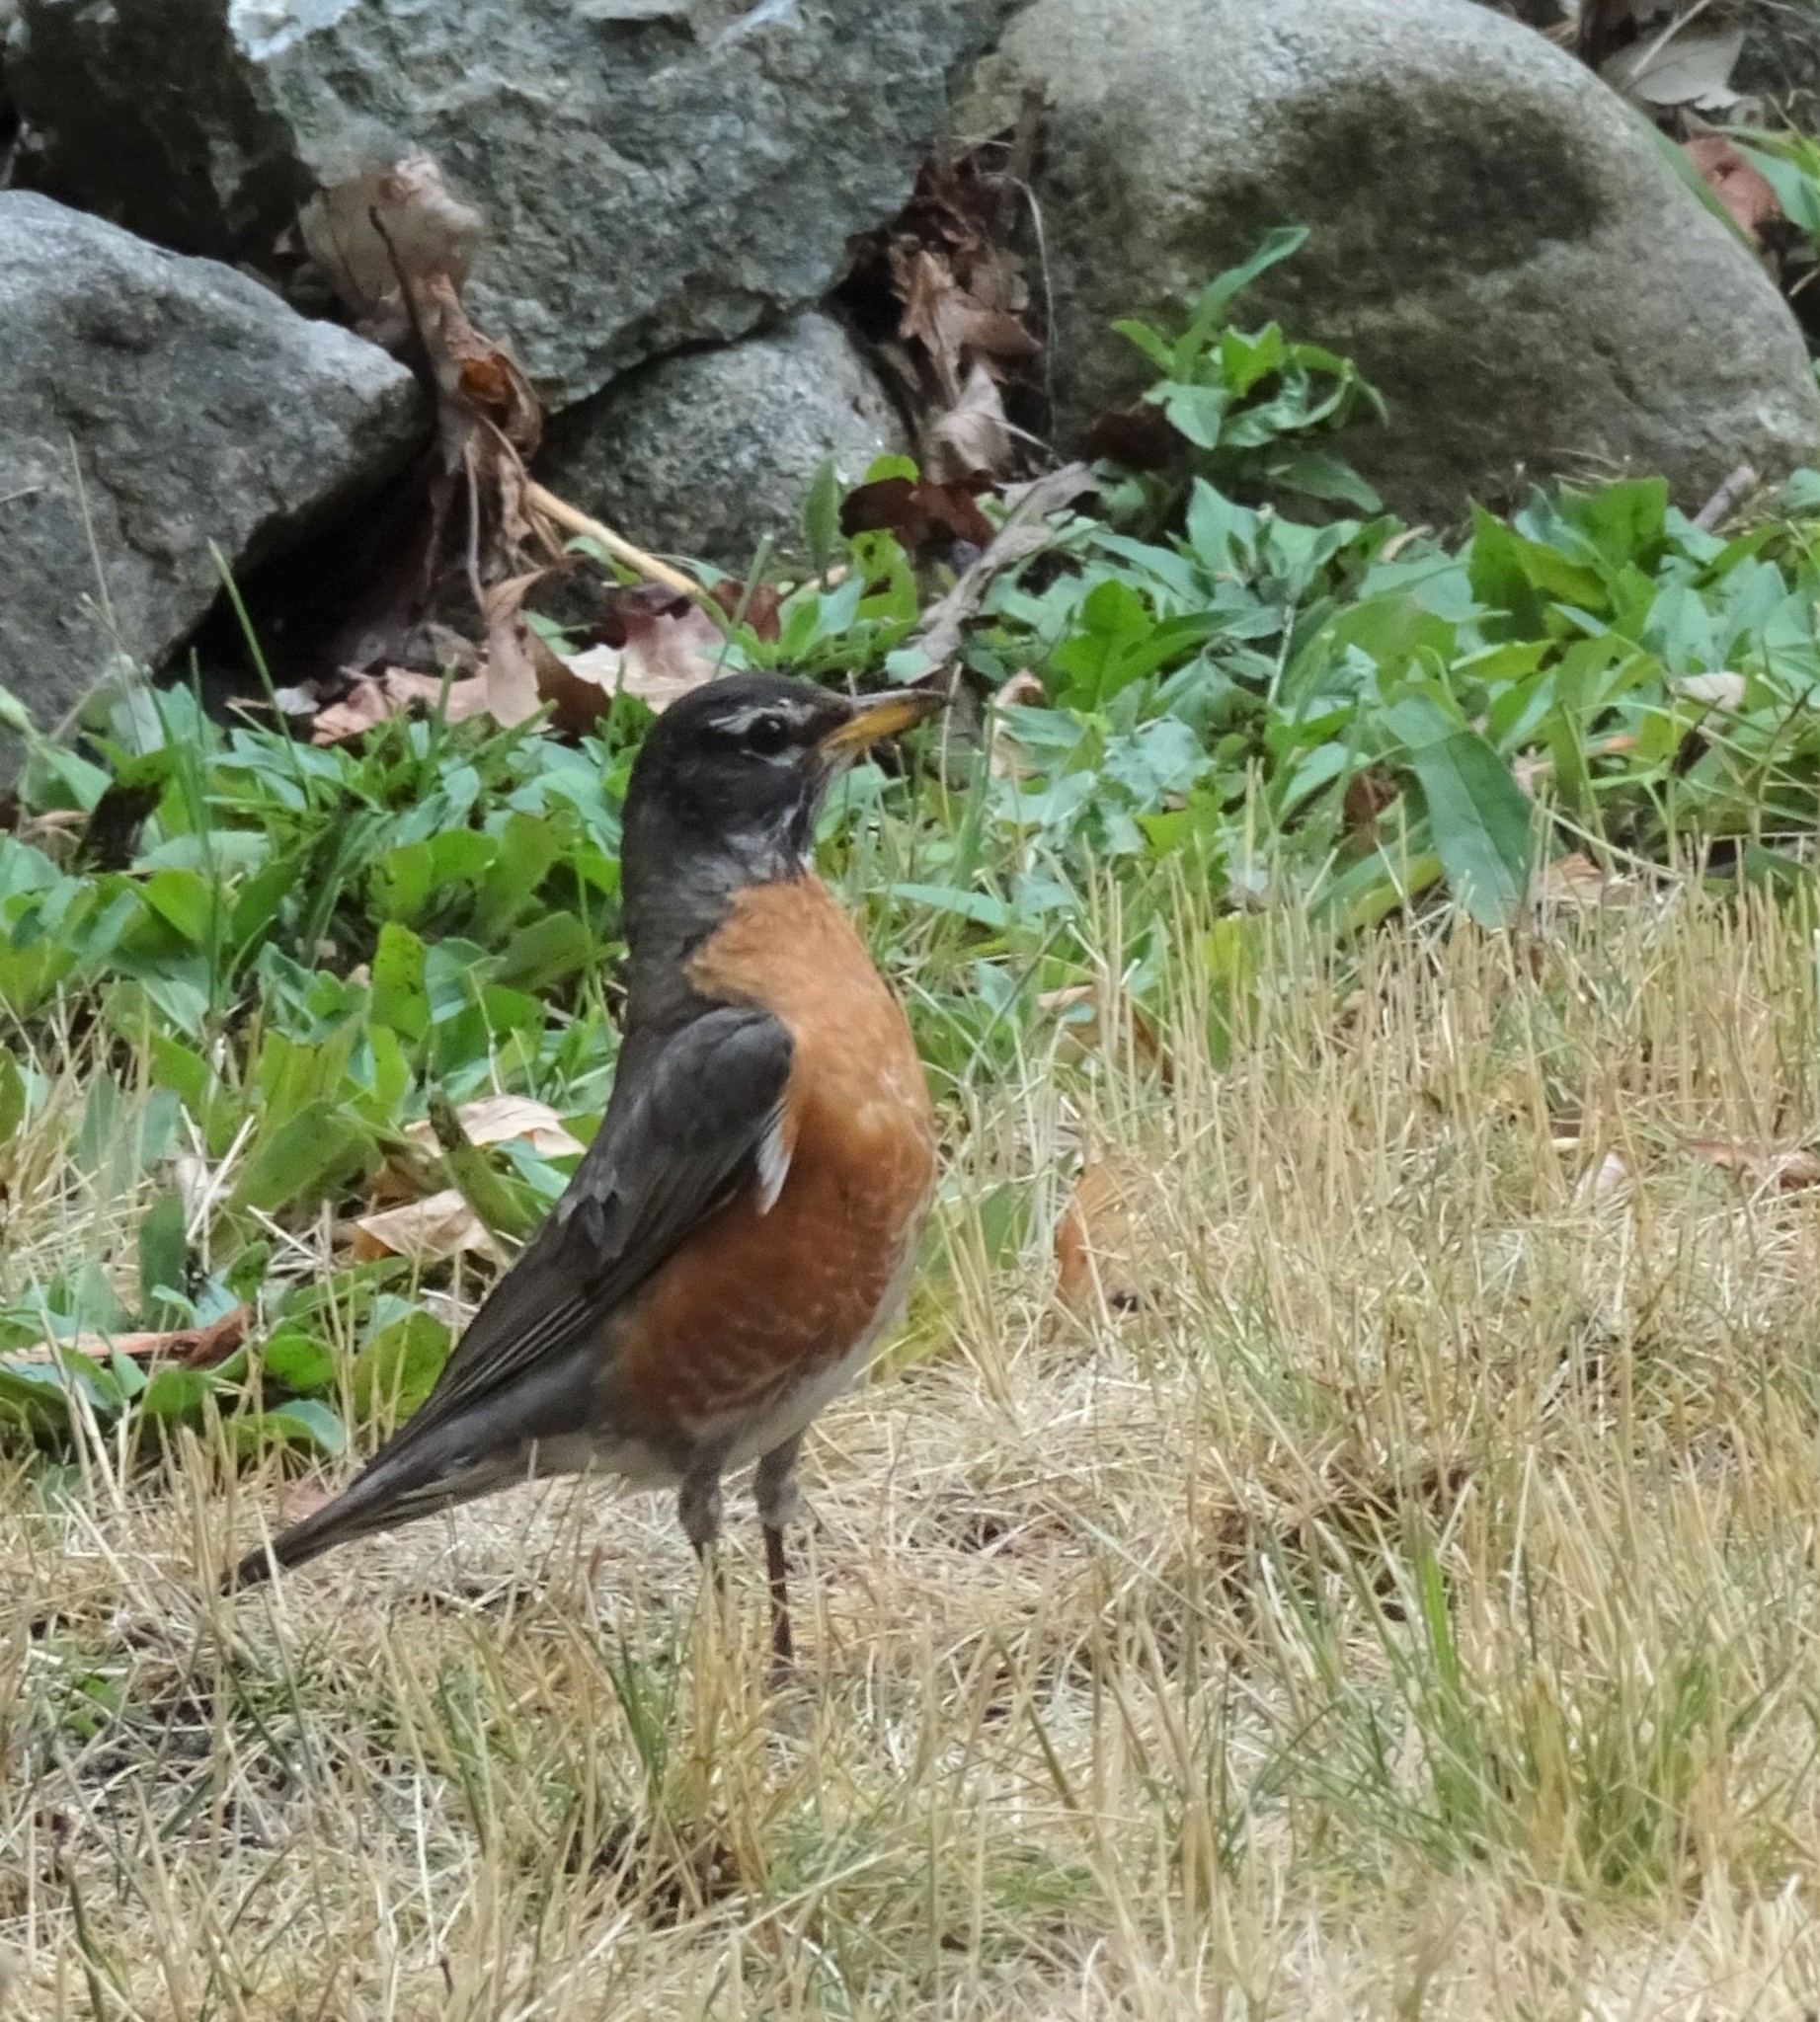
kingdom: Animalia
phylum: Chordata
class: Aves
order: Passeriformes
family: Turdidae
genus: Turdus
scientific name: Turdus migratorius
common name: American robin
